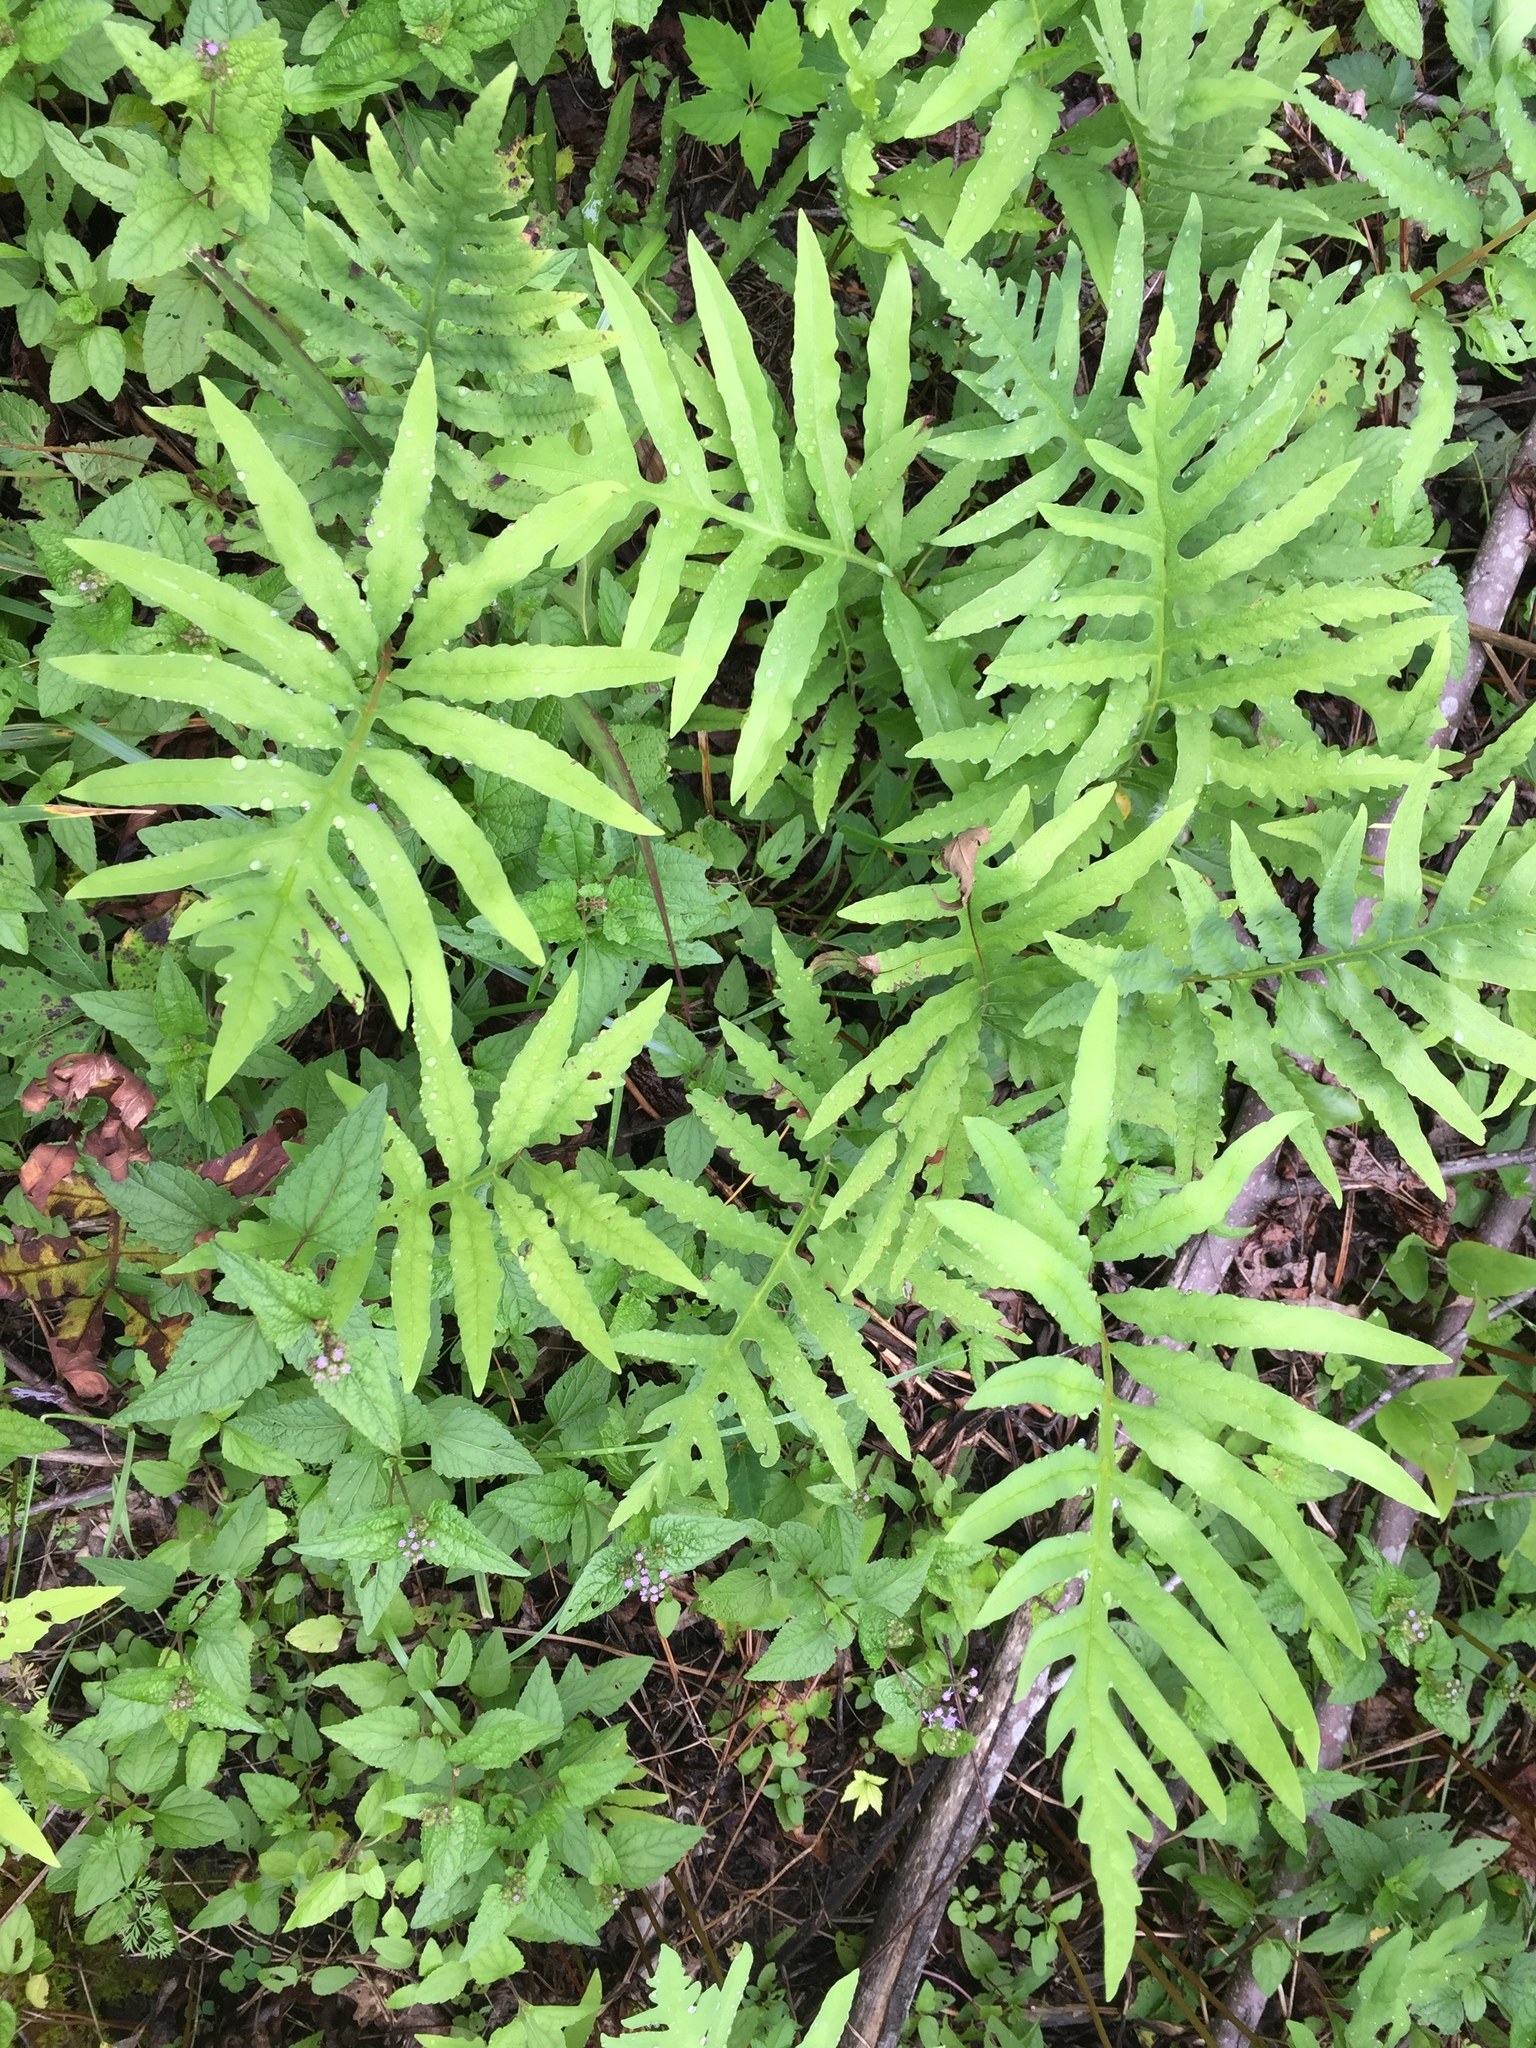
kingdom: Plantae
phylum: Tracheophyta
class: Polypodiopsida
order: Polypodiales
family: Onocleaceae
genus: Onoclea
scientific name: Onoclea sensibilis
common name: Sensitive fern
